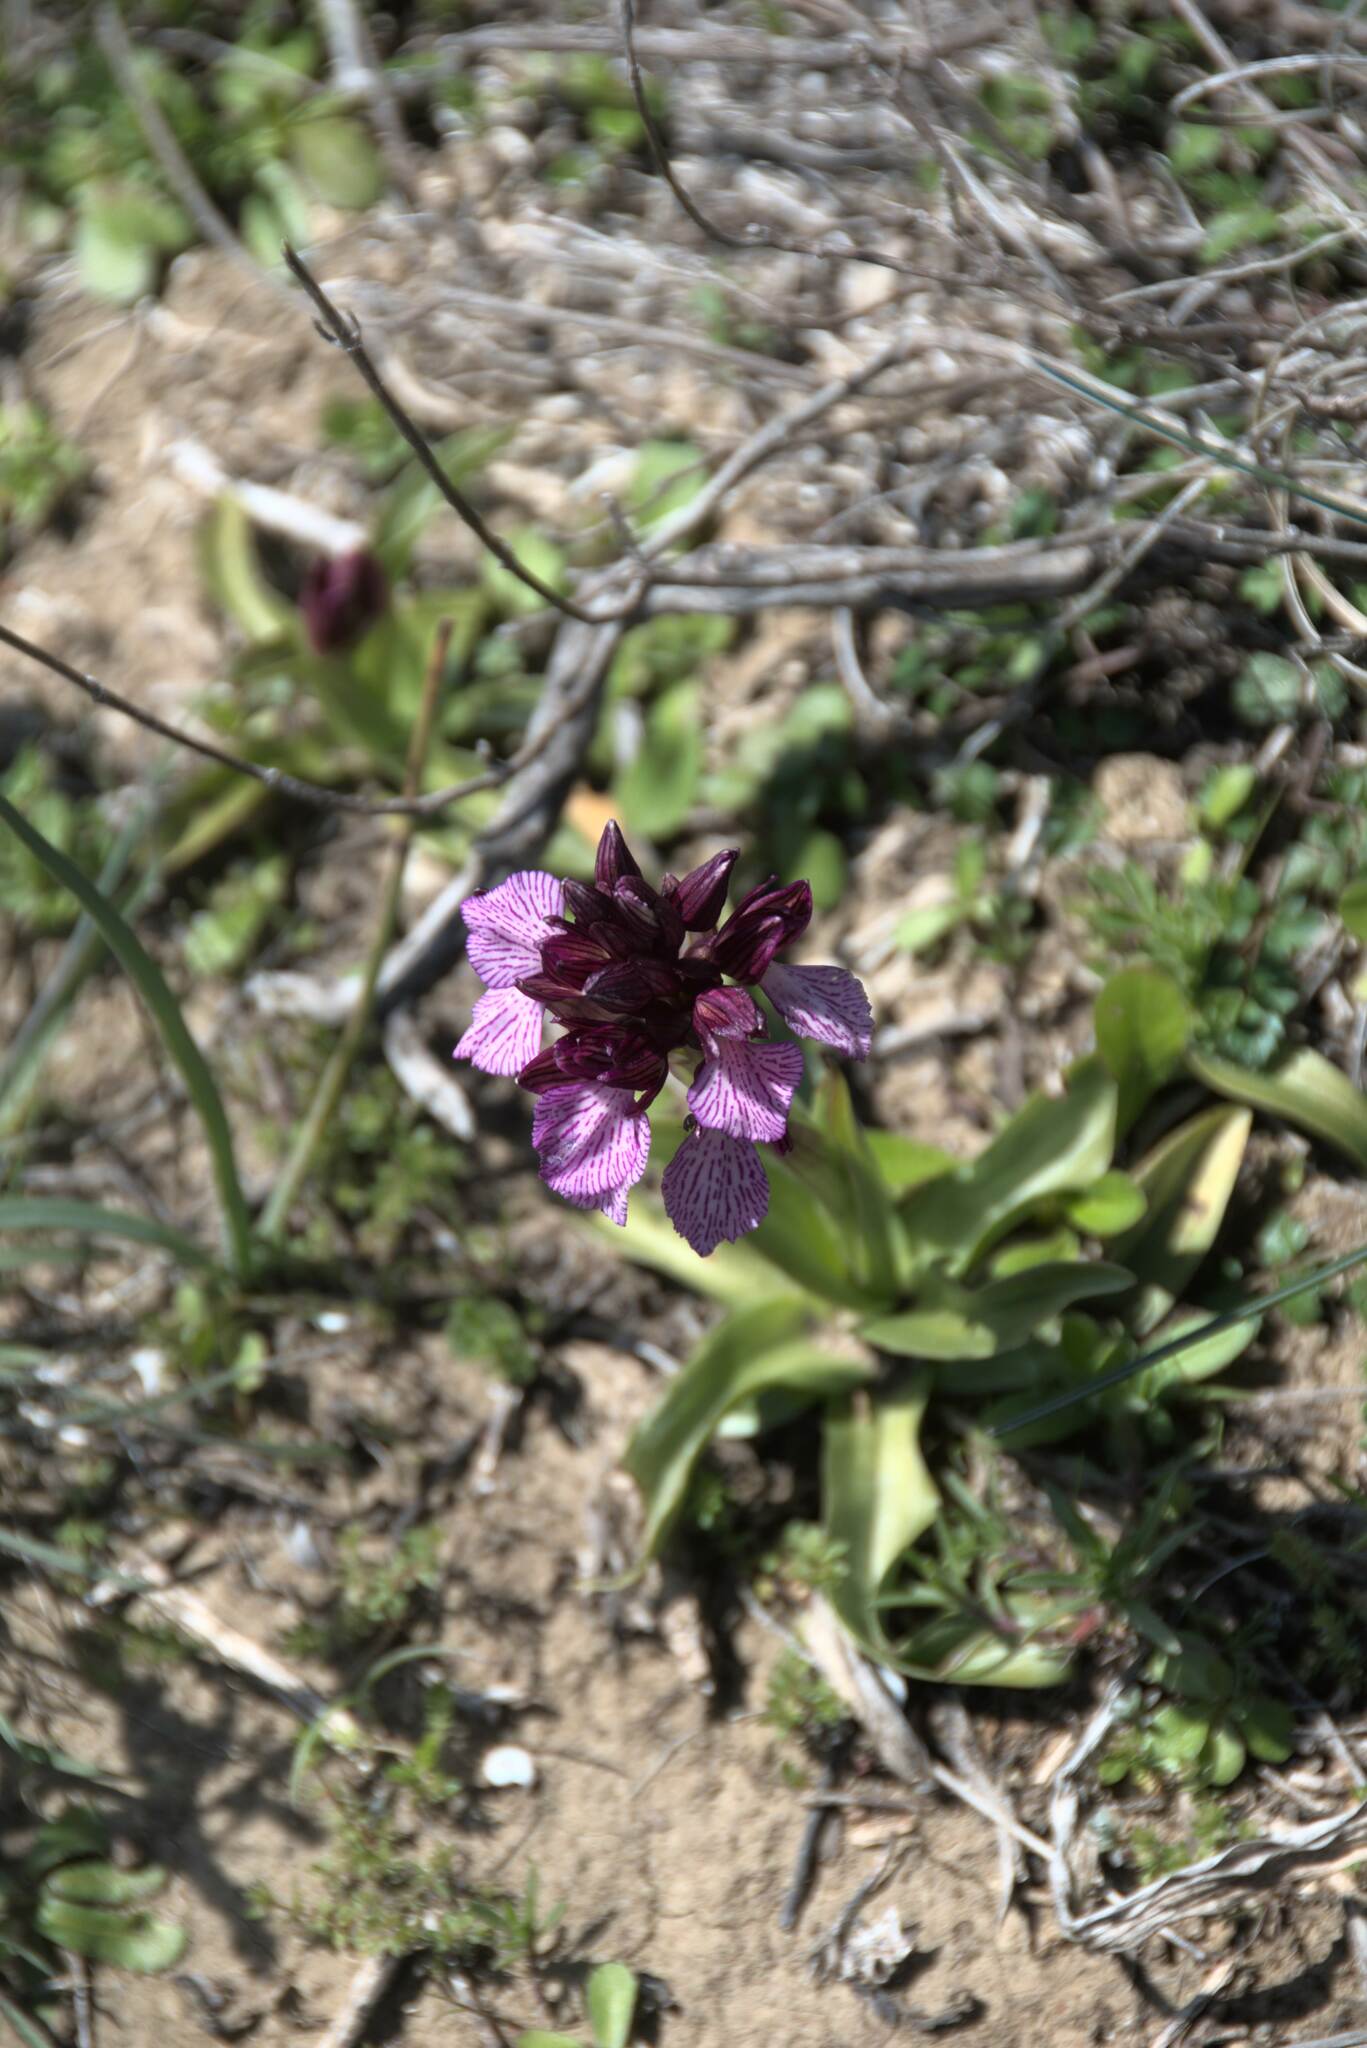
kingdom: Plantae
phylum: Tracheophyta
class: Liliopsida
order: Asparagales
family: Orchidaceae
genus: Anacamptis
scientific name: Anacamptis papilionacea
